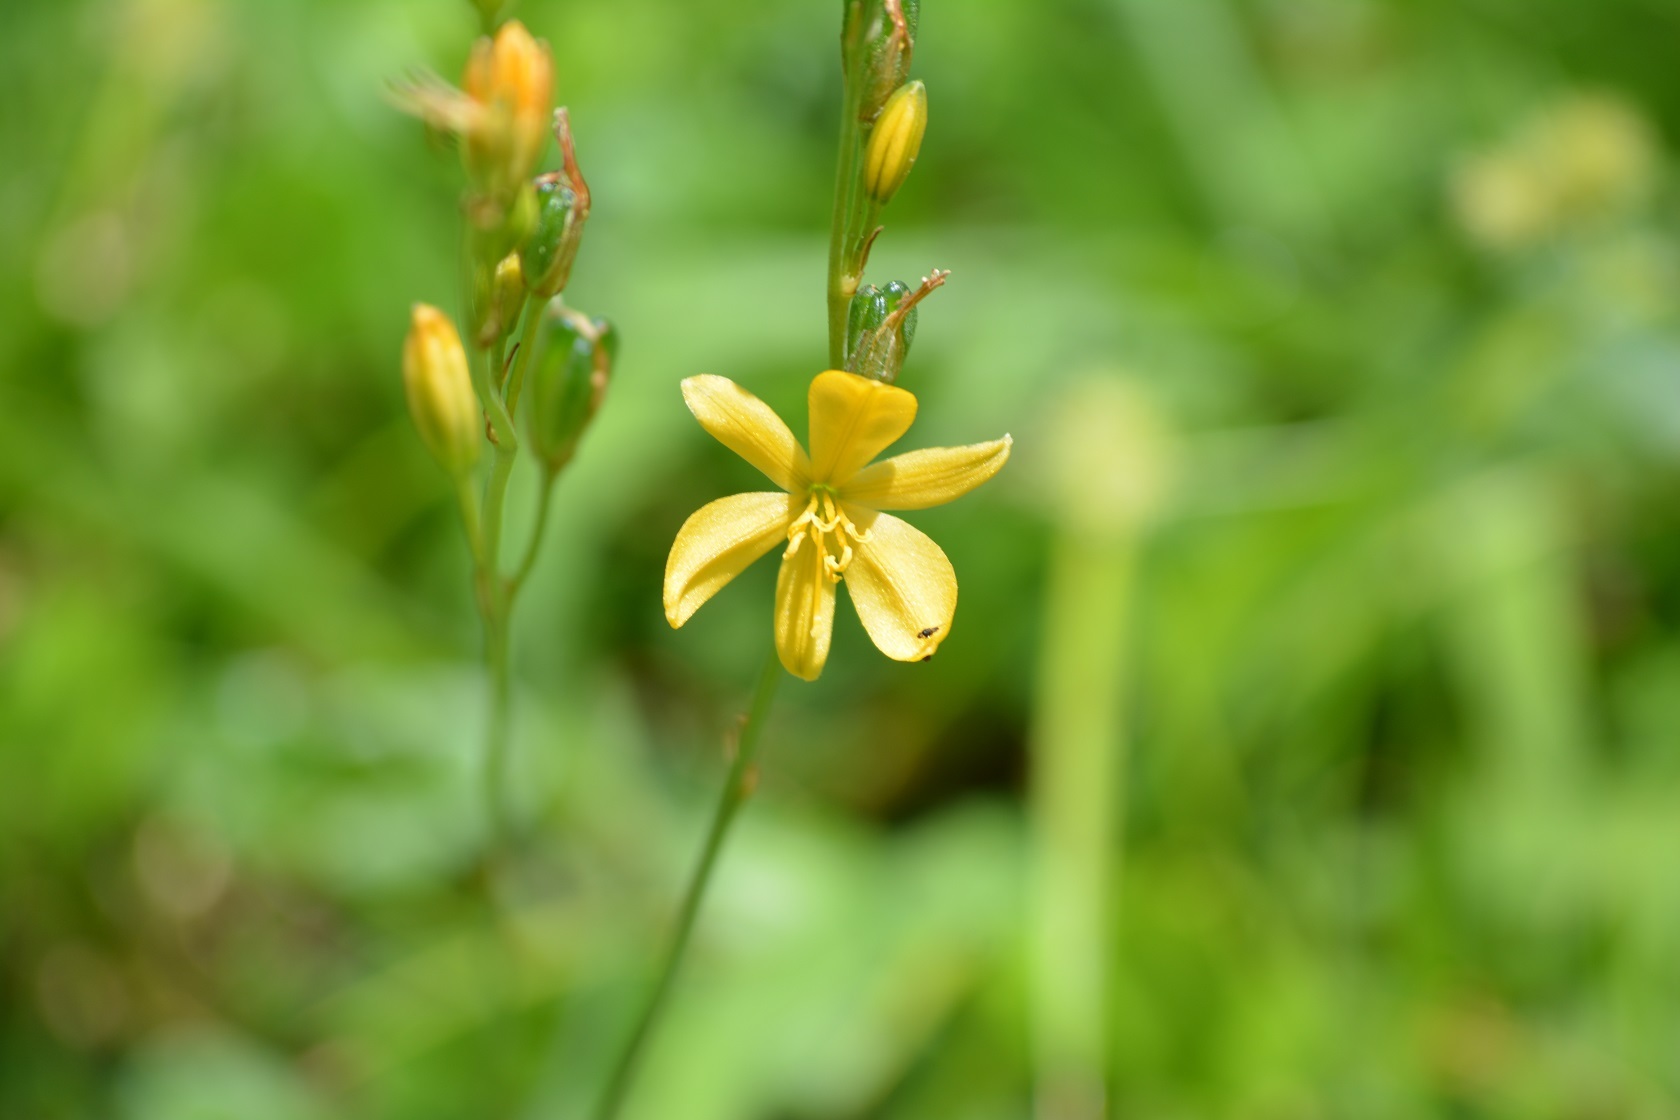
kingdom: Plantae
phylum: Tracheophyta
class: Liliopsida
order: Asparagales
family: Asparagaceae
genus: Echeandia
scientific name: Echeandia skinneri
